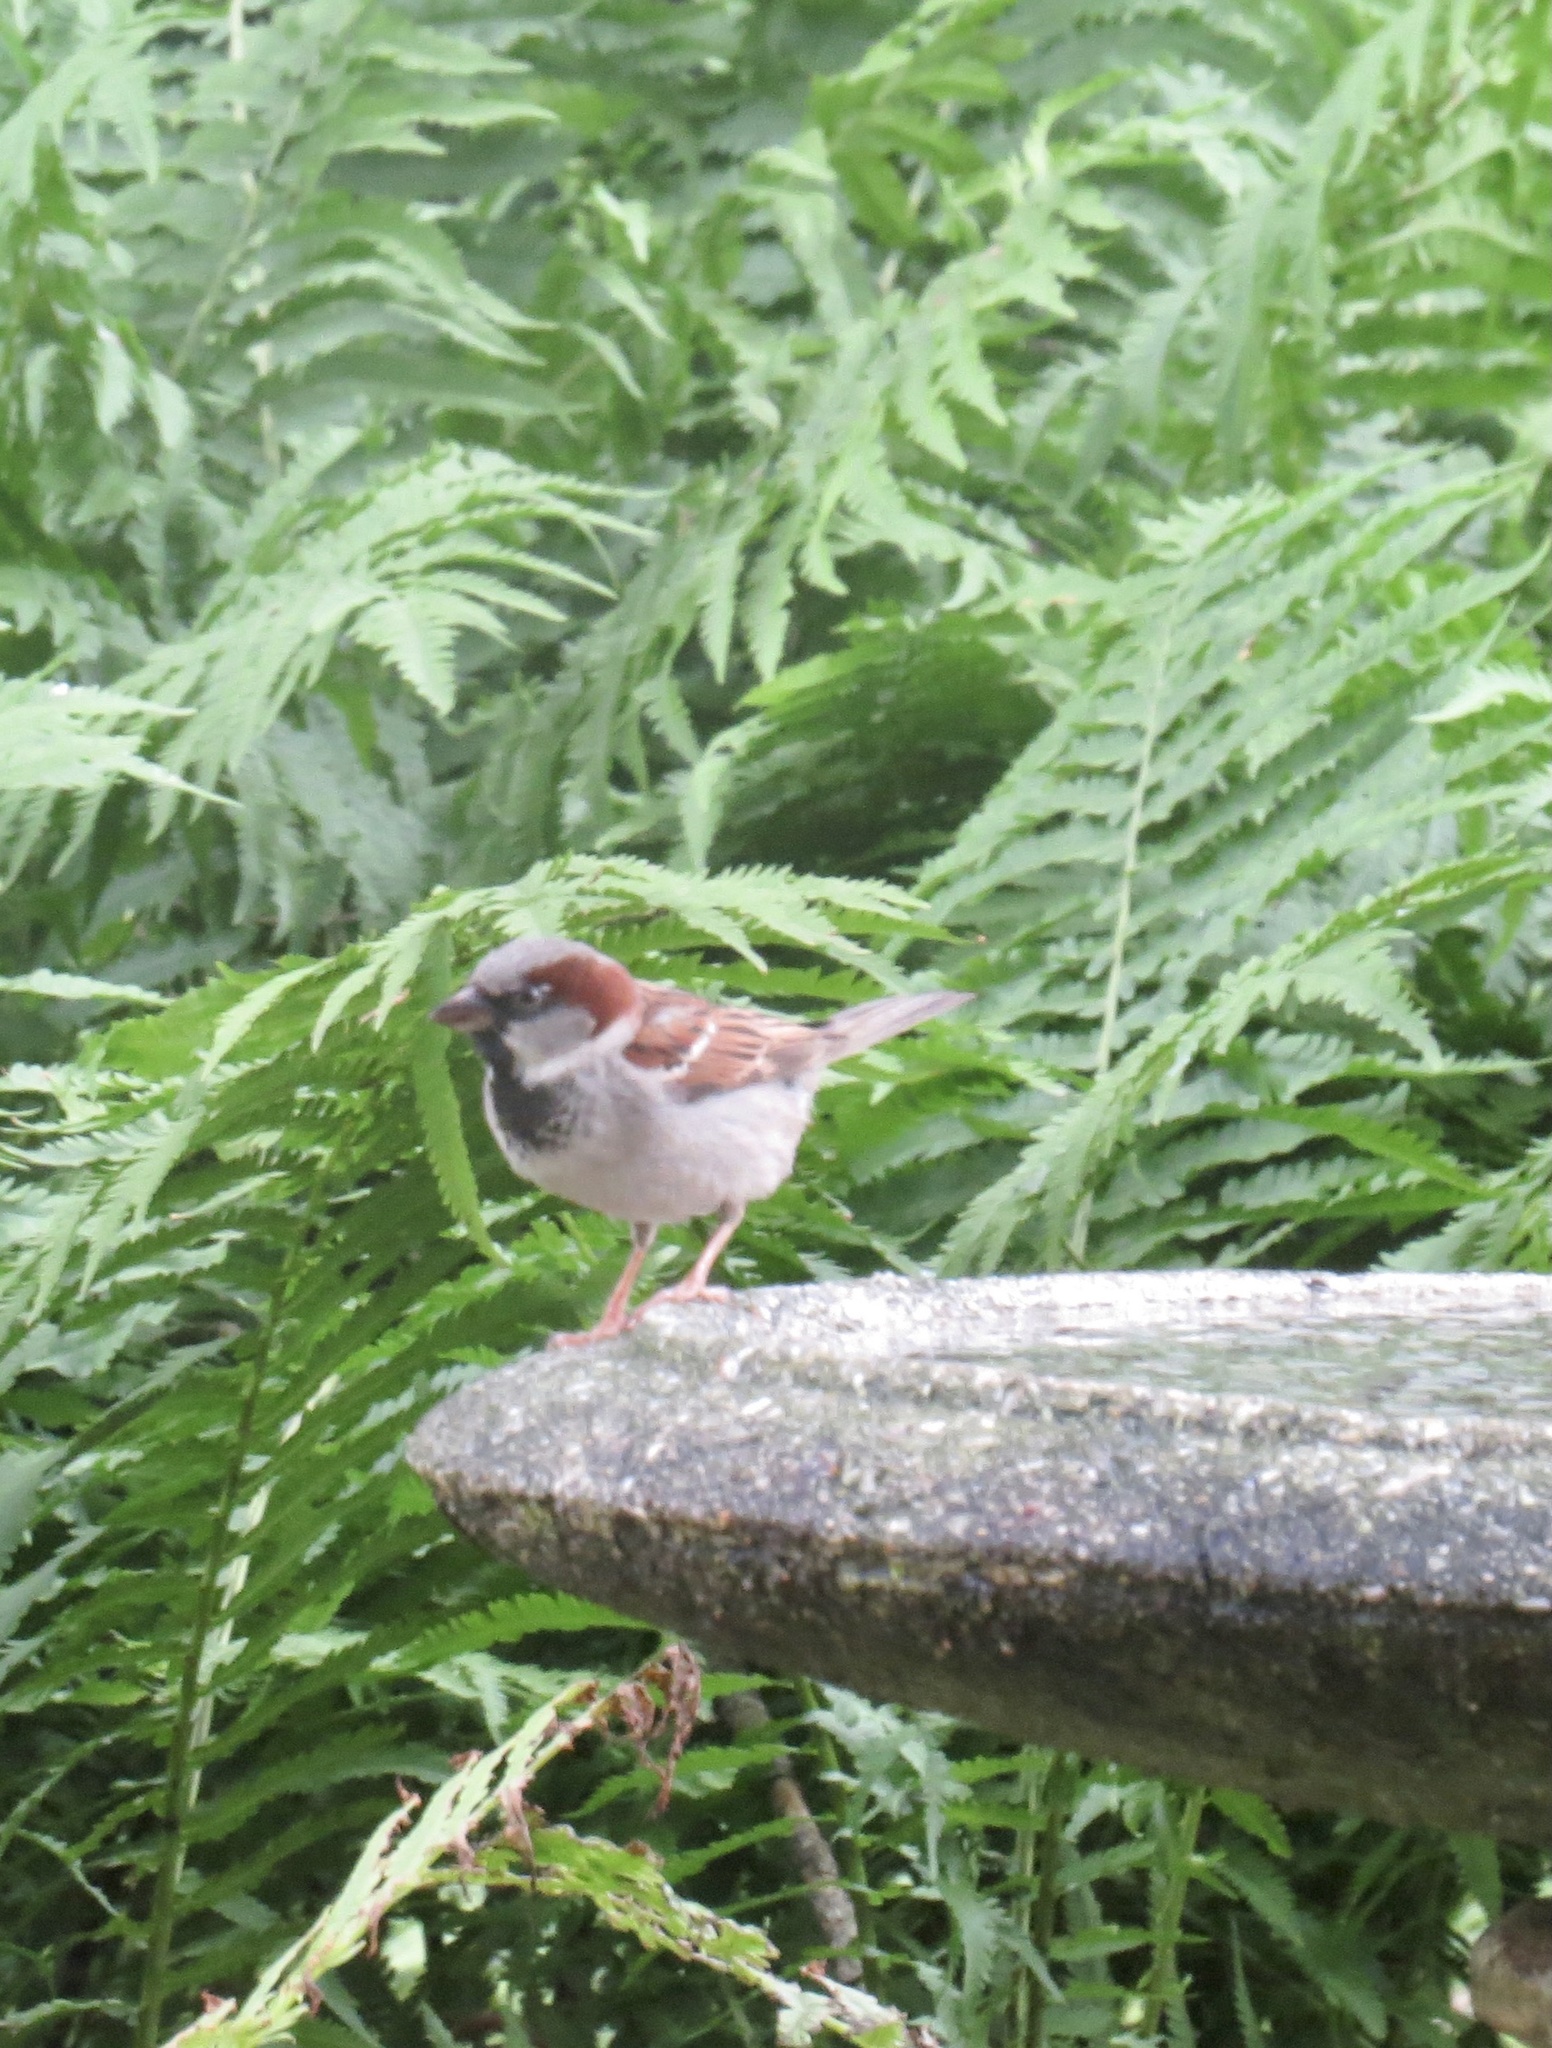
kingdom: Animalia
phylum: Chordata
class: Aves
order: Passeriformes
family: Passeridae
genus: Passer
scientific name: Passer domesticus
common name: House sparrow
